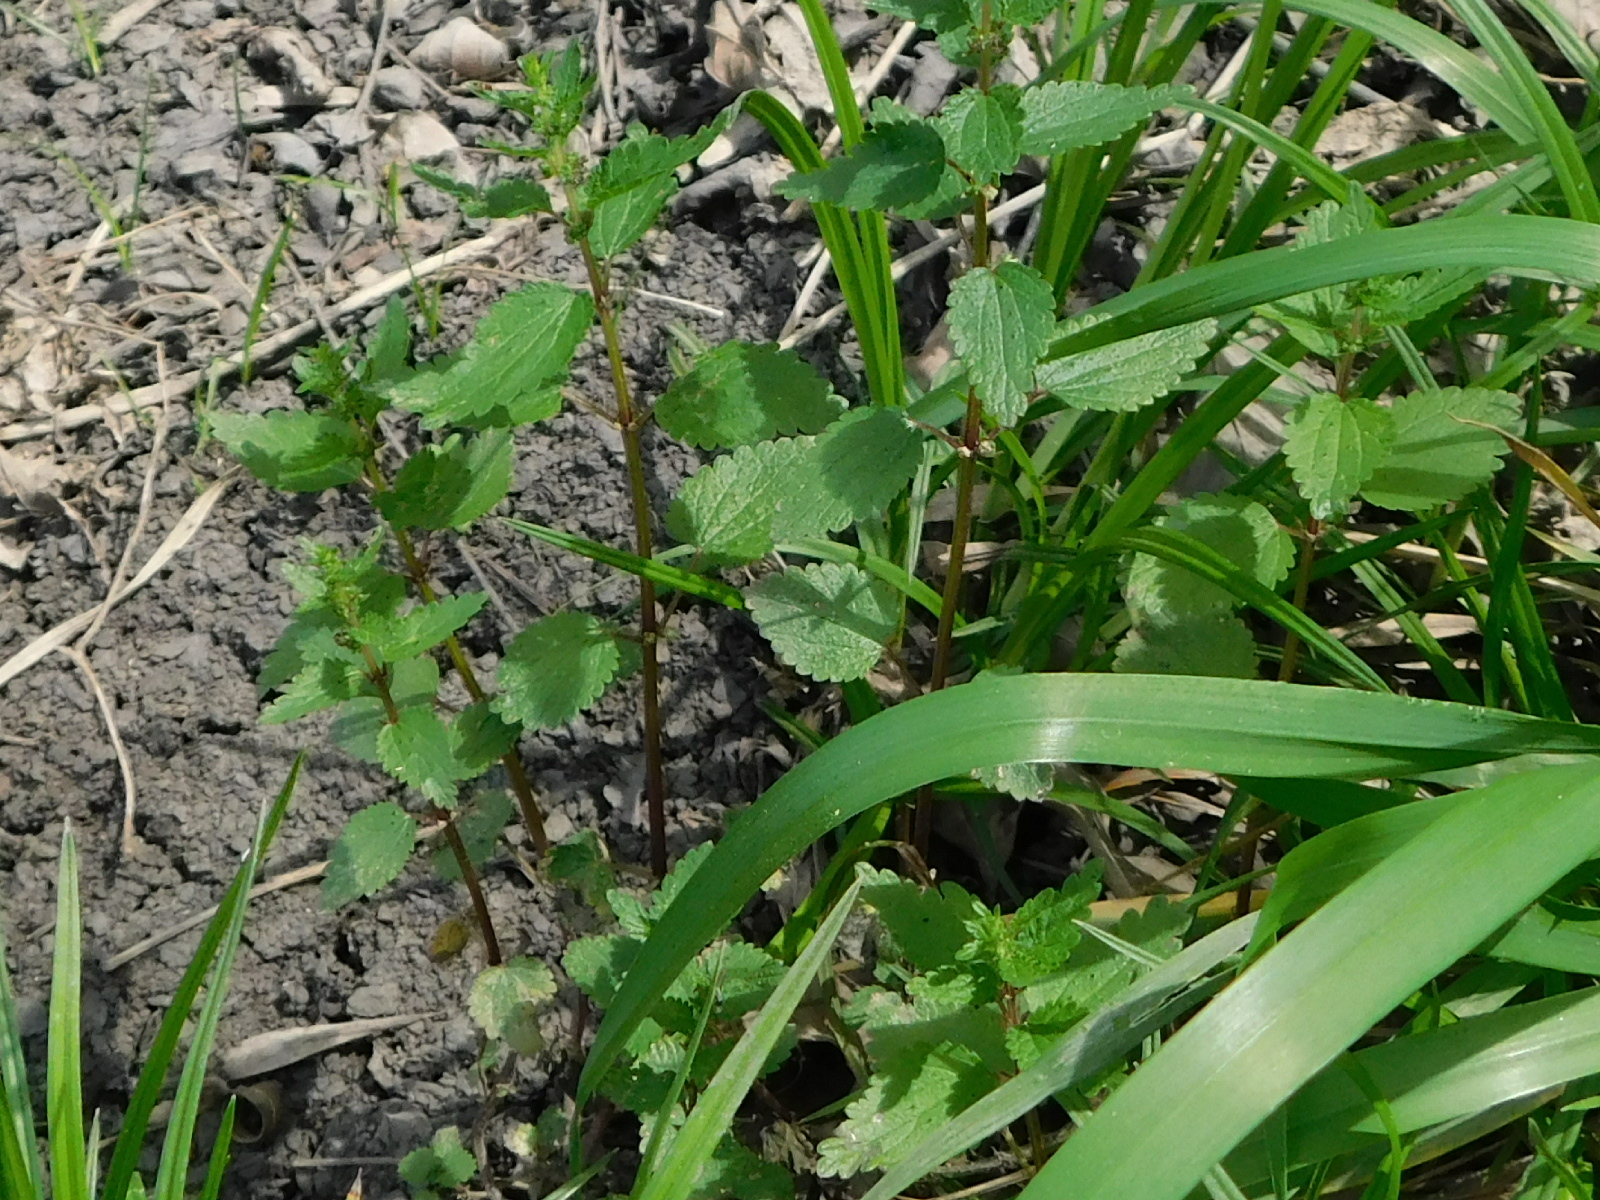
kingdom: Plantae
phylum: Tracheophyta
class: Magnoliopsida
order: Rosales
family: Urticaceae
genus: Urtica
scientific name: Urtica chamaedryoides
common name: Heart-leaf nettle
